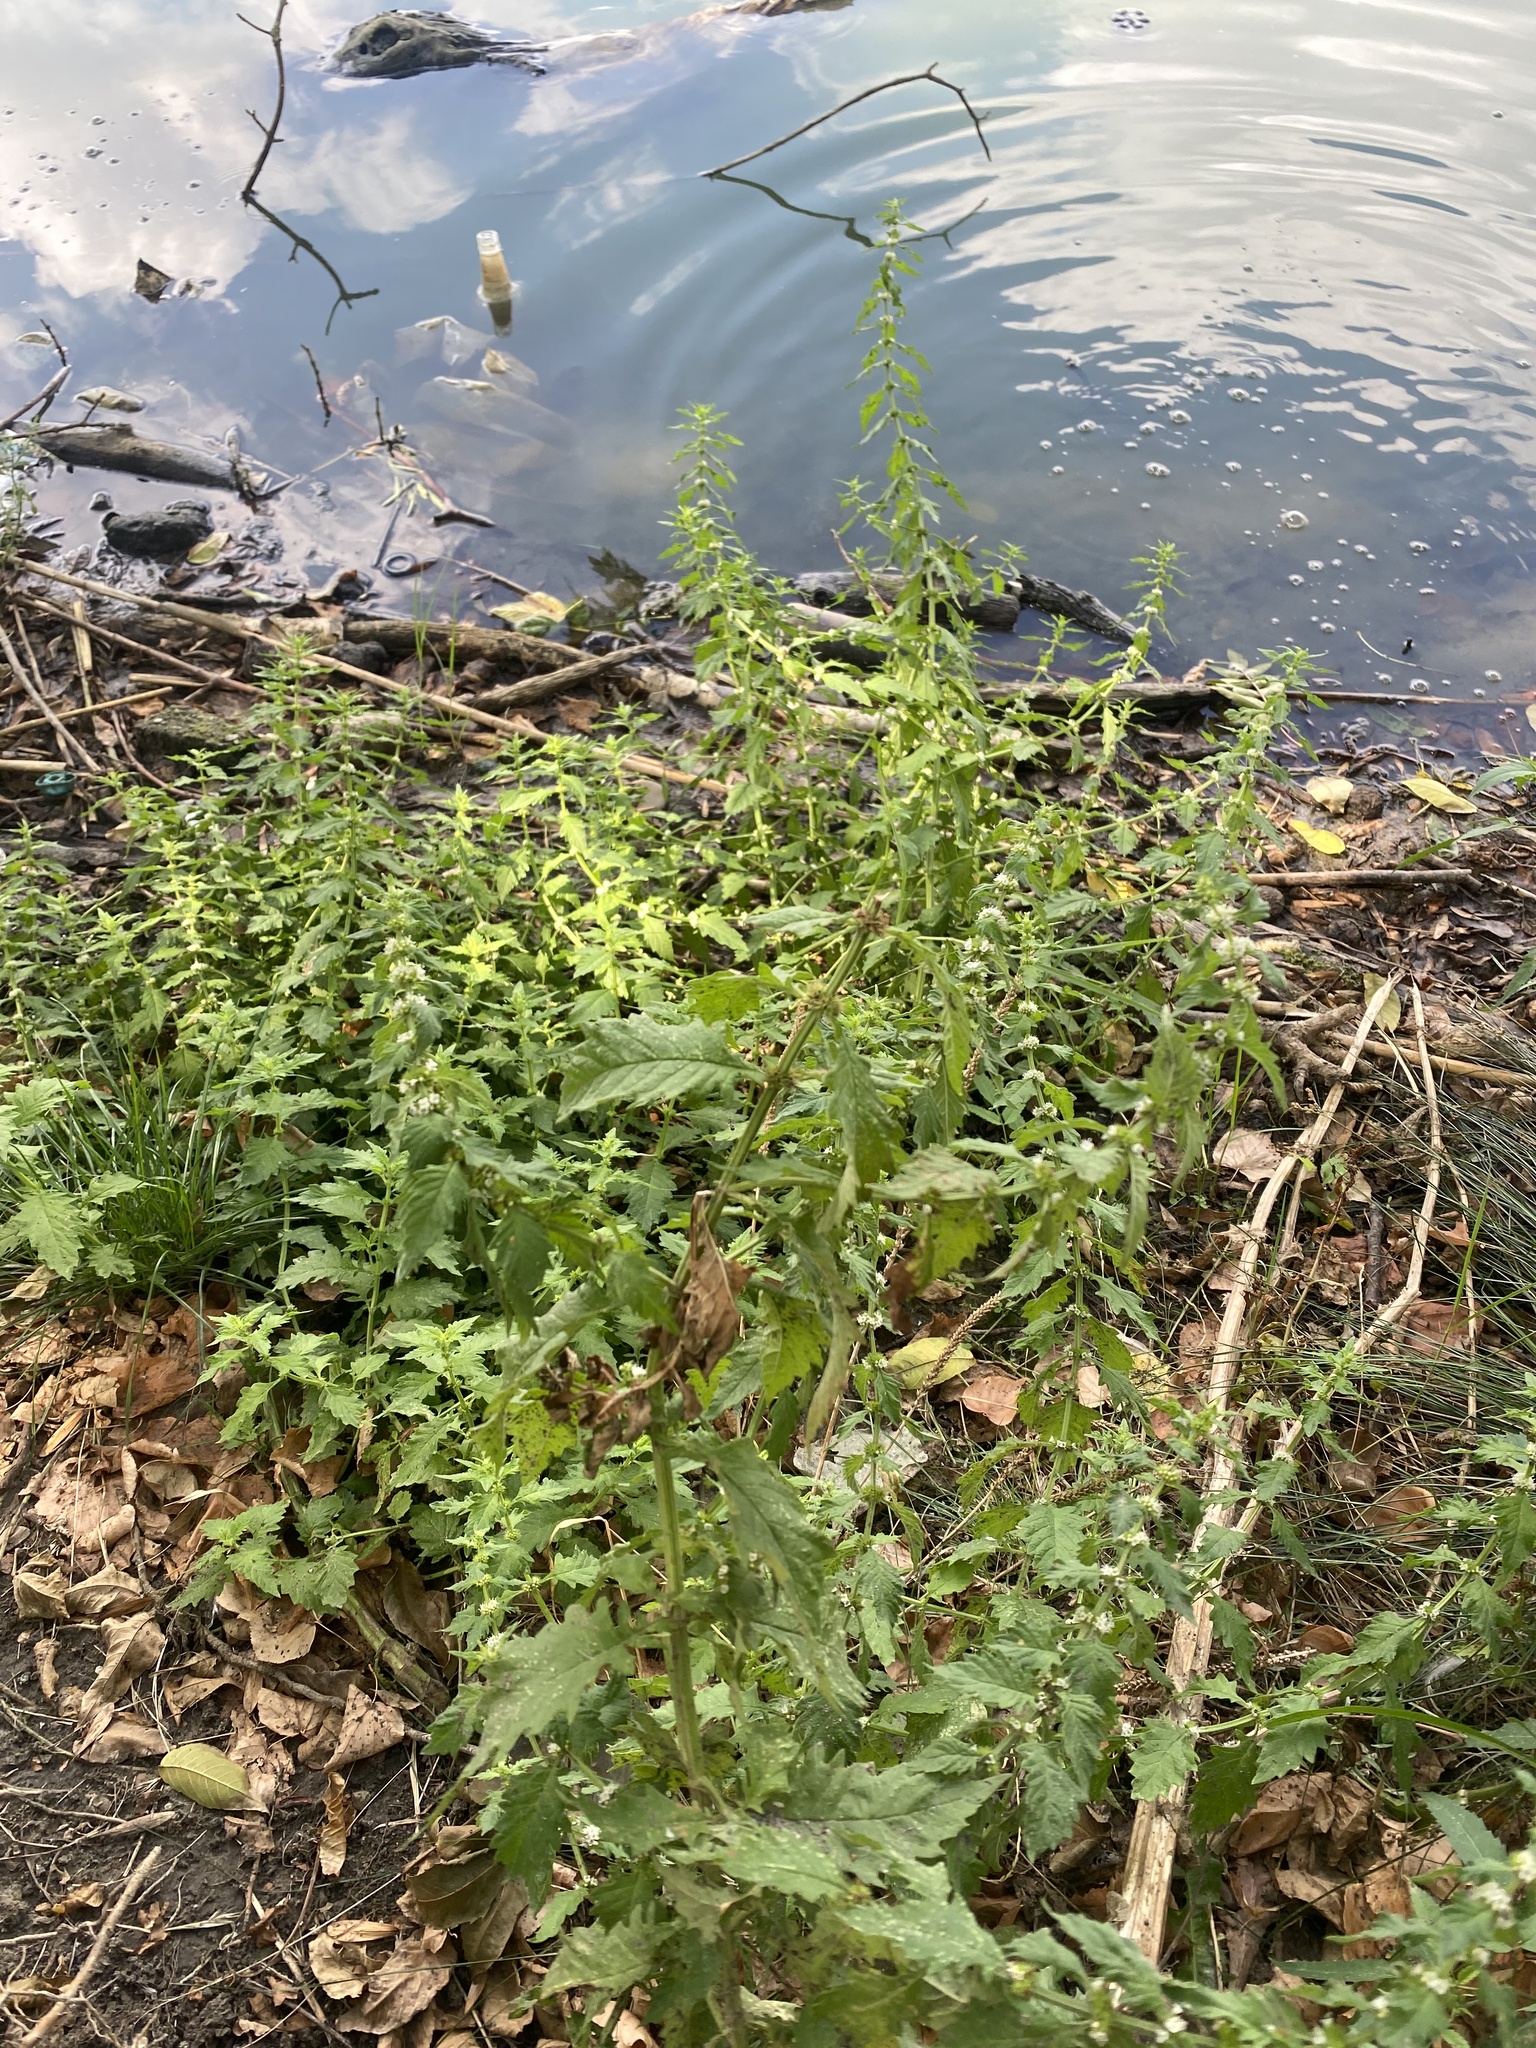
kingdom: Plantae
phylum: Tracheophyta
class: Magnoliopsida
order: Lamiales
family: Lamiaceae
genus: Lycopus
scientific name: Lycopus europaeus
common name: European bugleweed
